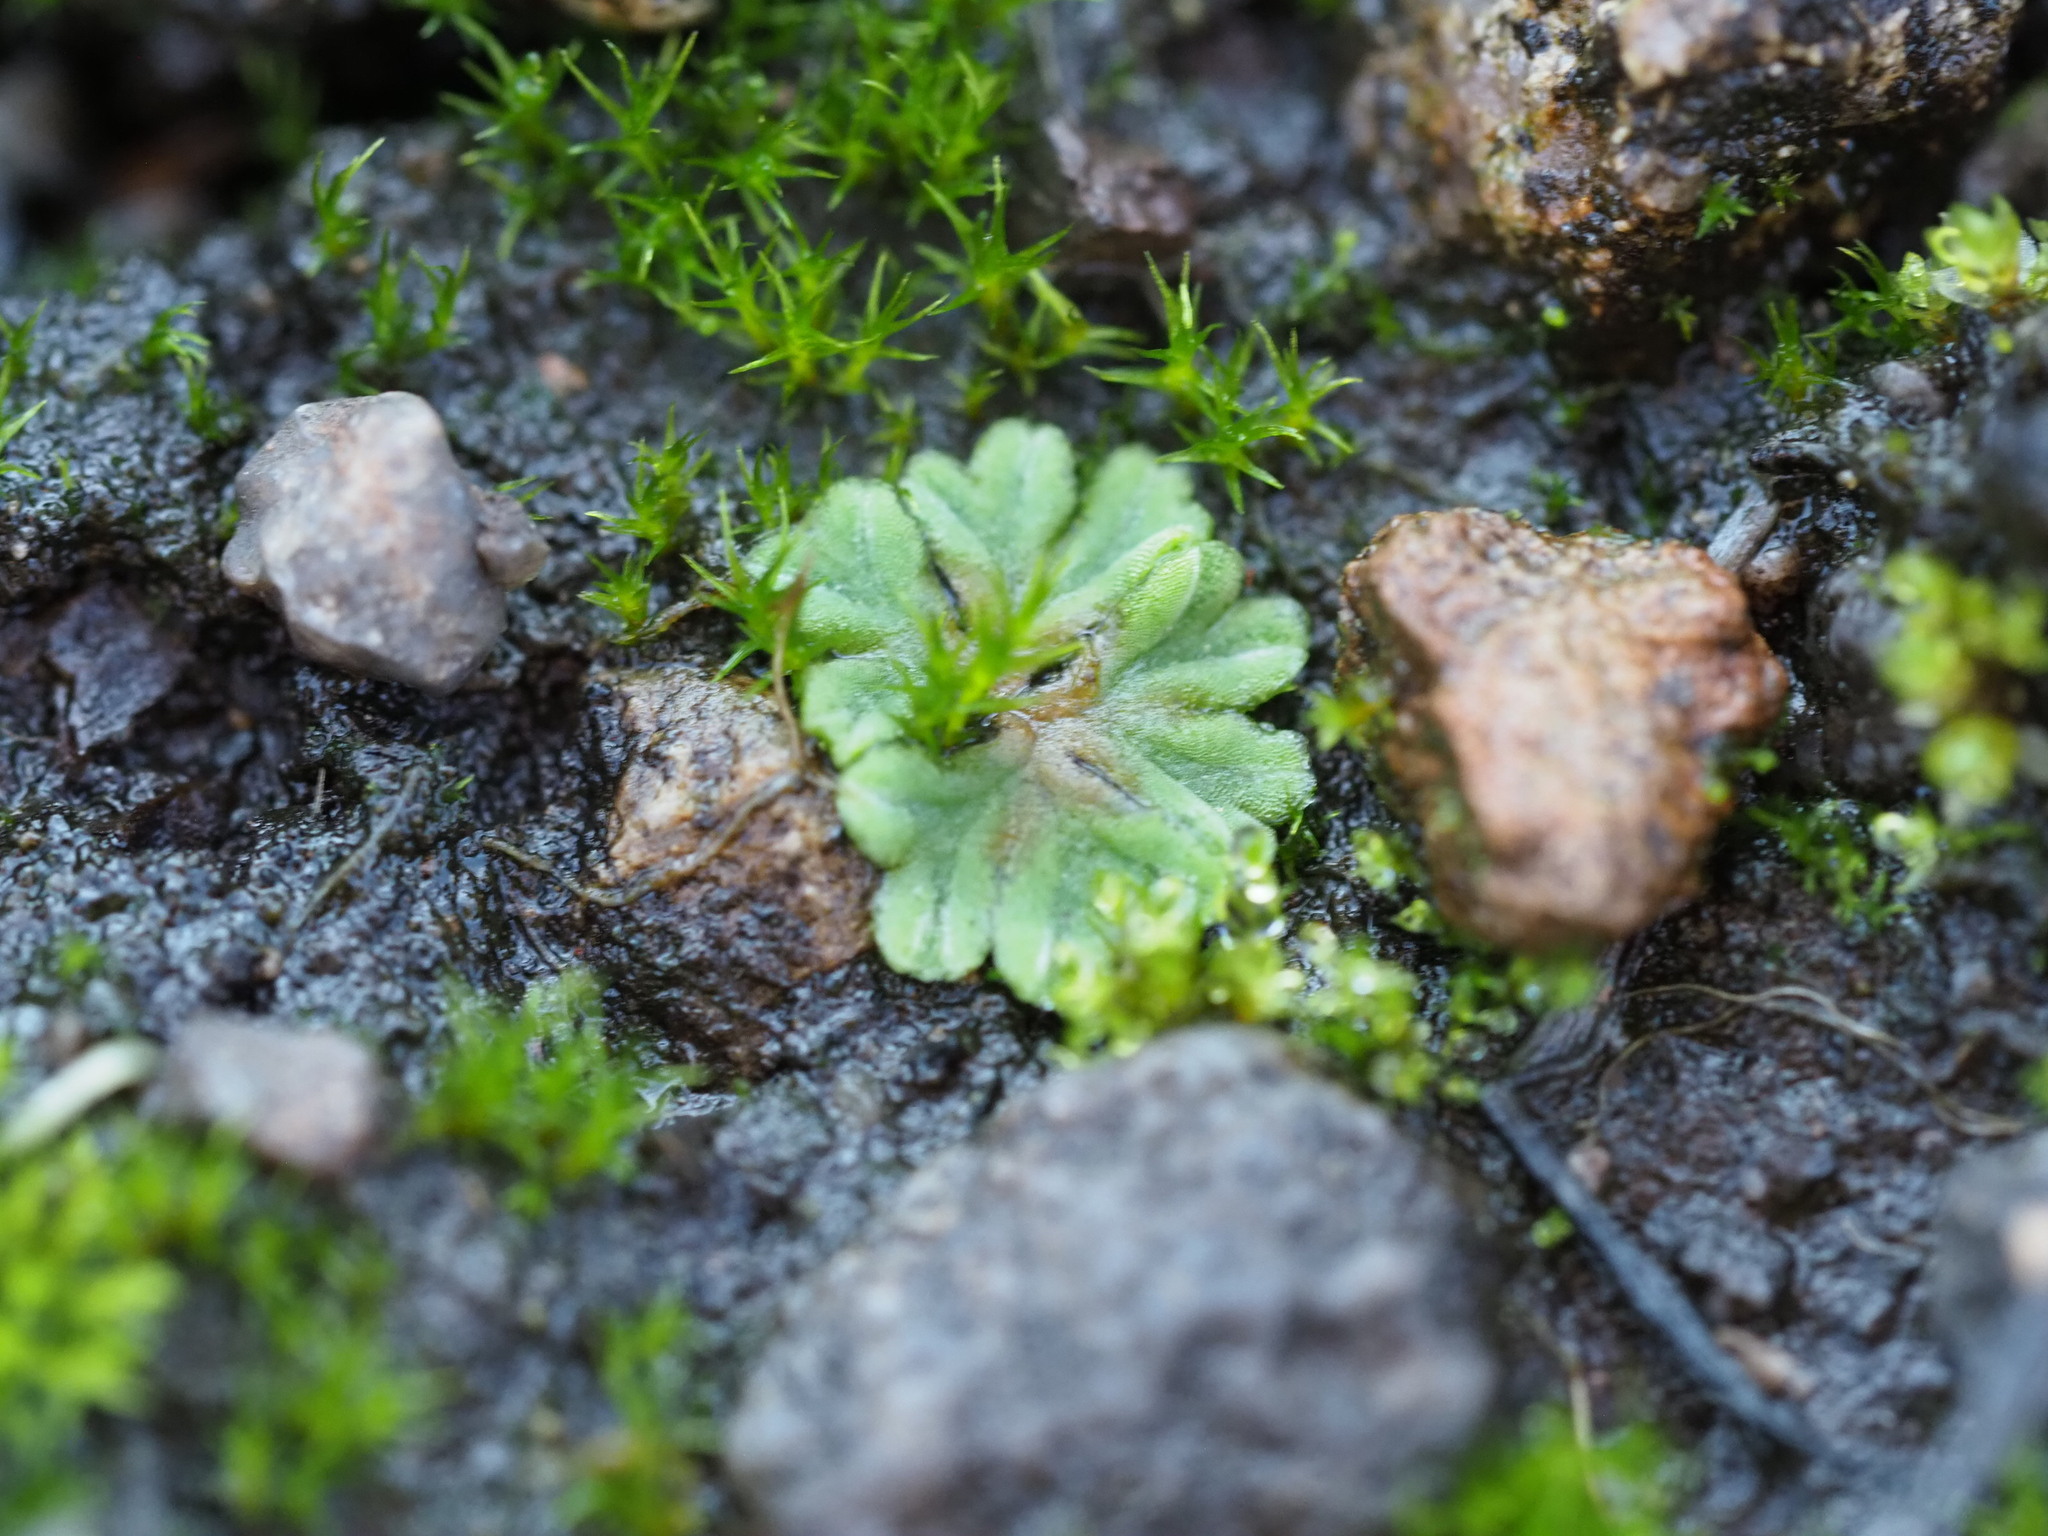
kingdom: Plantae
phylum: Marchantiophyta
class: Marchantiopsida
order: Marchantiales
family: Ricciaceae
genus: Riccia
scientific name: Riccia sorocarpa
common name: Common crystalwort
